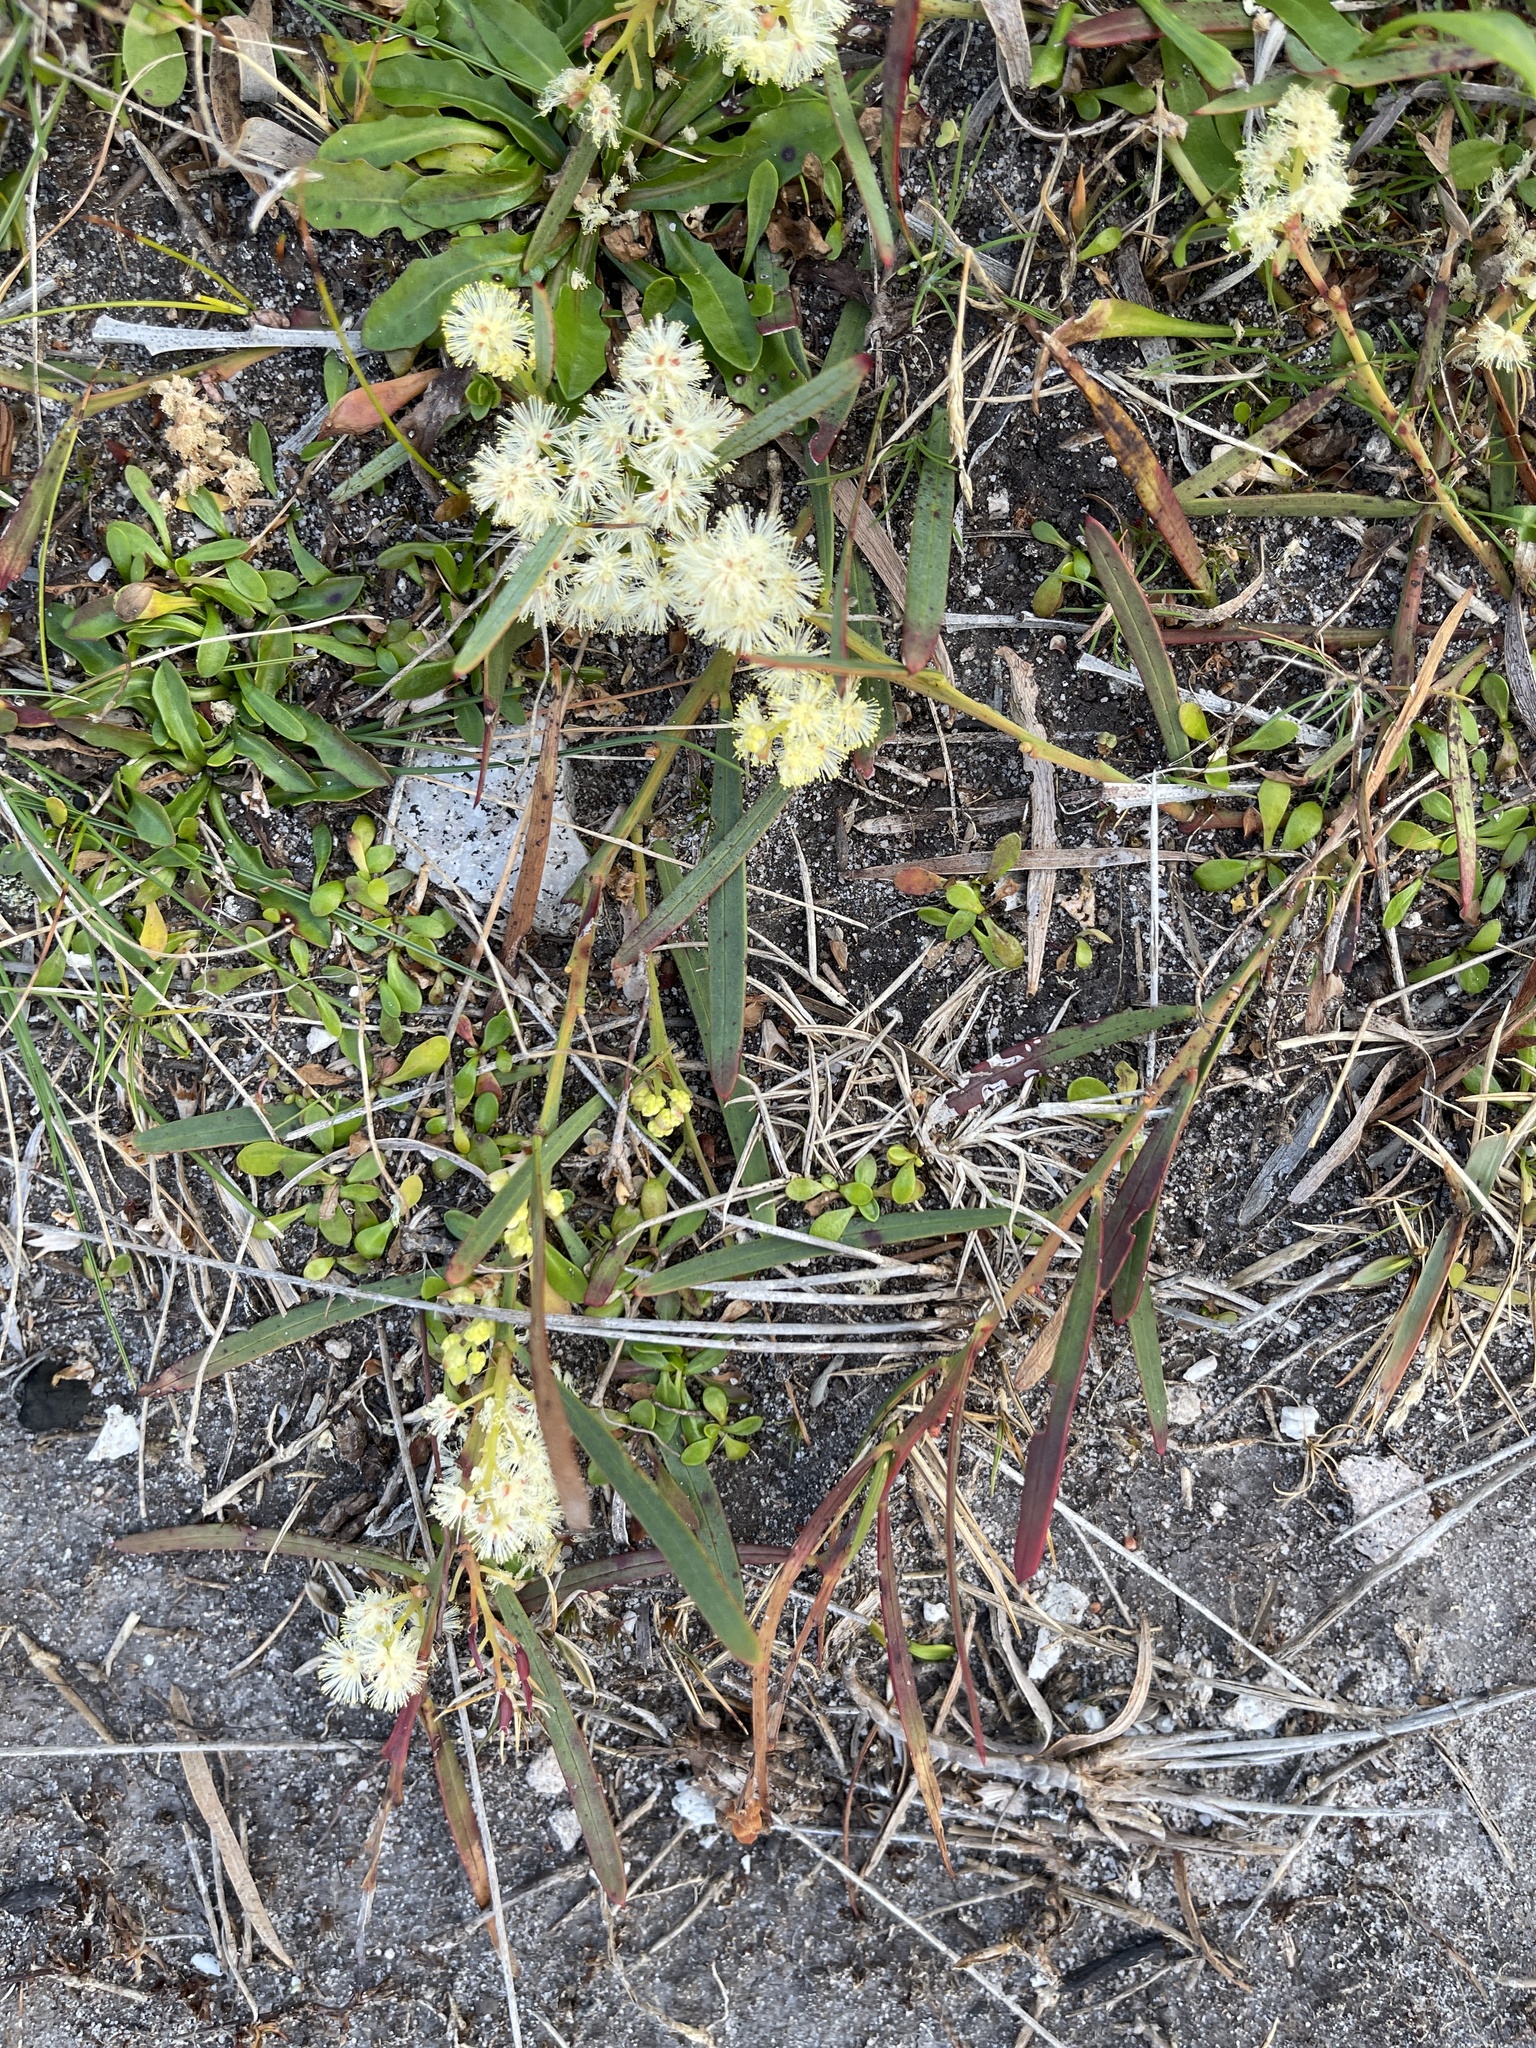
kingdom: Plantae
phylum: Tracheophyta
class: Magnoliopsida
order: Fabales
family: Fabaceae
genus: Acacia
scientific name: Acacia suaveolens
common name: Sweet acacia
